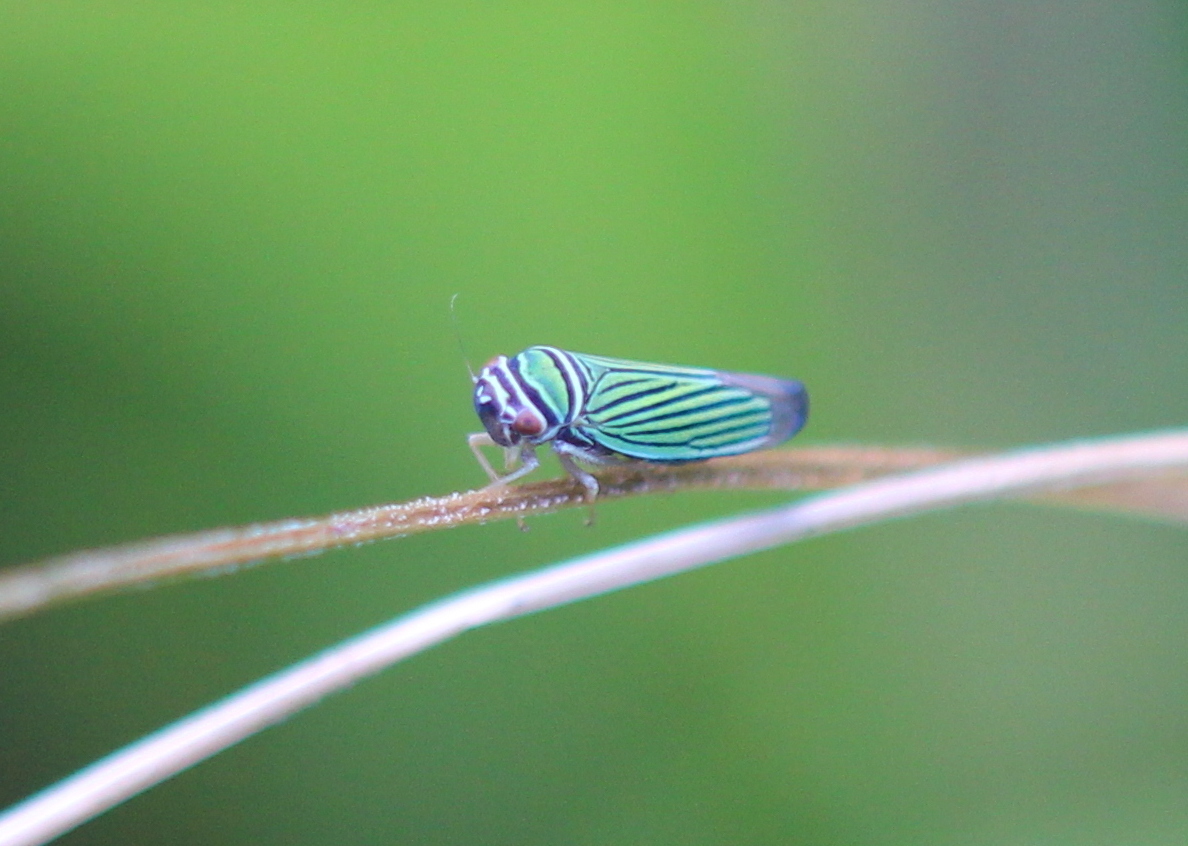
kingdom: Animalia
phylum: Arthropoda
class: Insecta
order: Hemiptera
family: Cicadellidae
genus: Tylozygus
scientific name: Tylozygus bifidus
